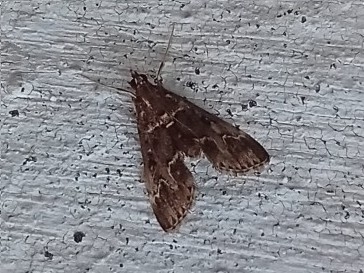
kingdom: Animalia
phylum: Arthropoda
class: Insecta
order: Lepidoptera
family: Crambidae
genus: Duponchelia
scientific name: Duponchelia fovealis
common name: Crambid moth
